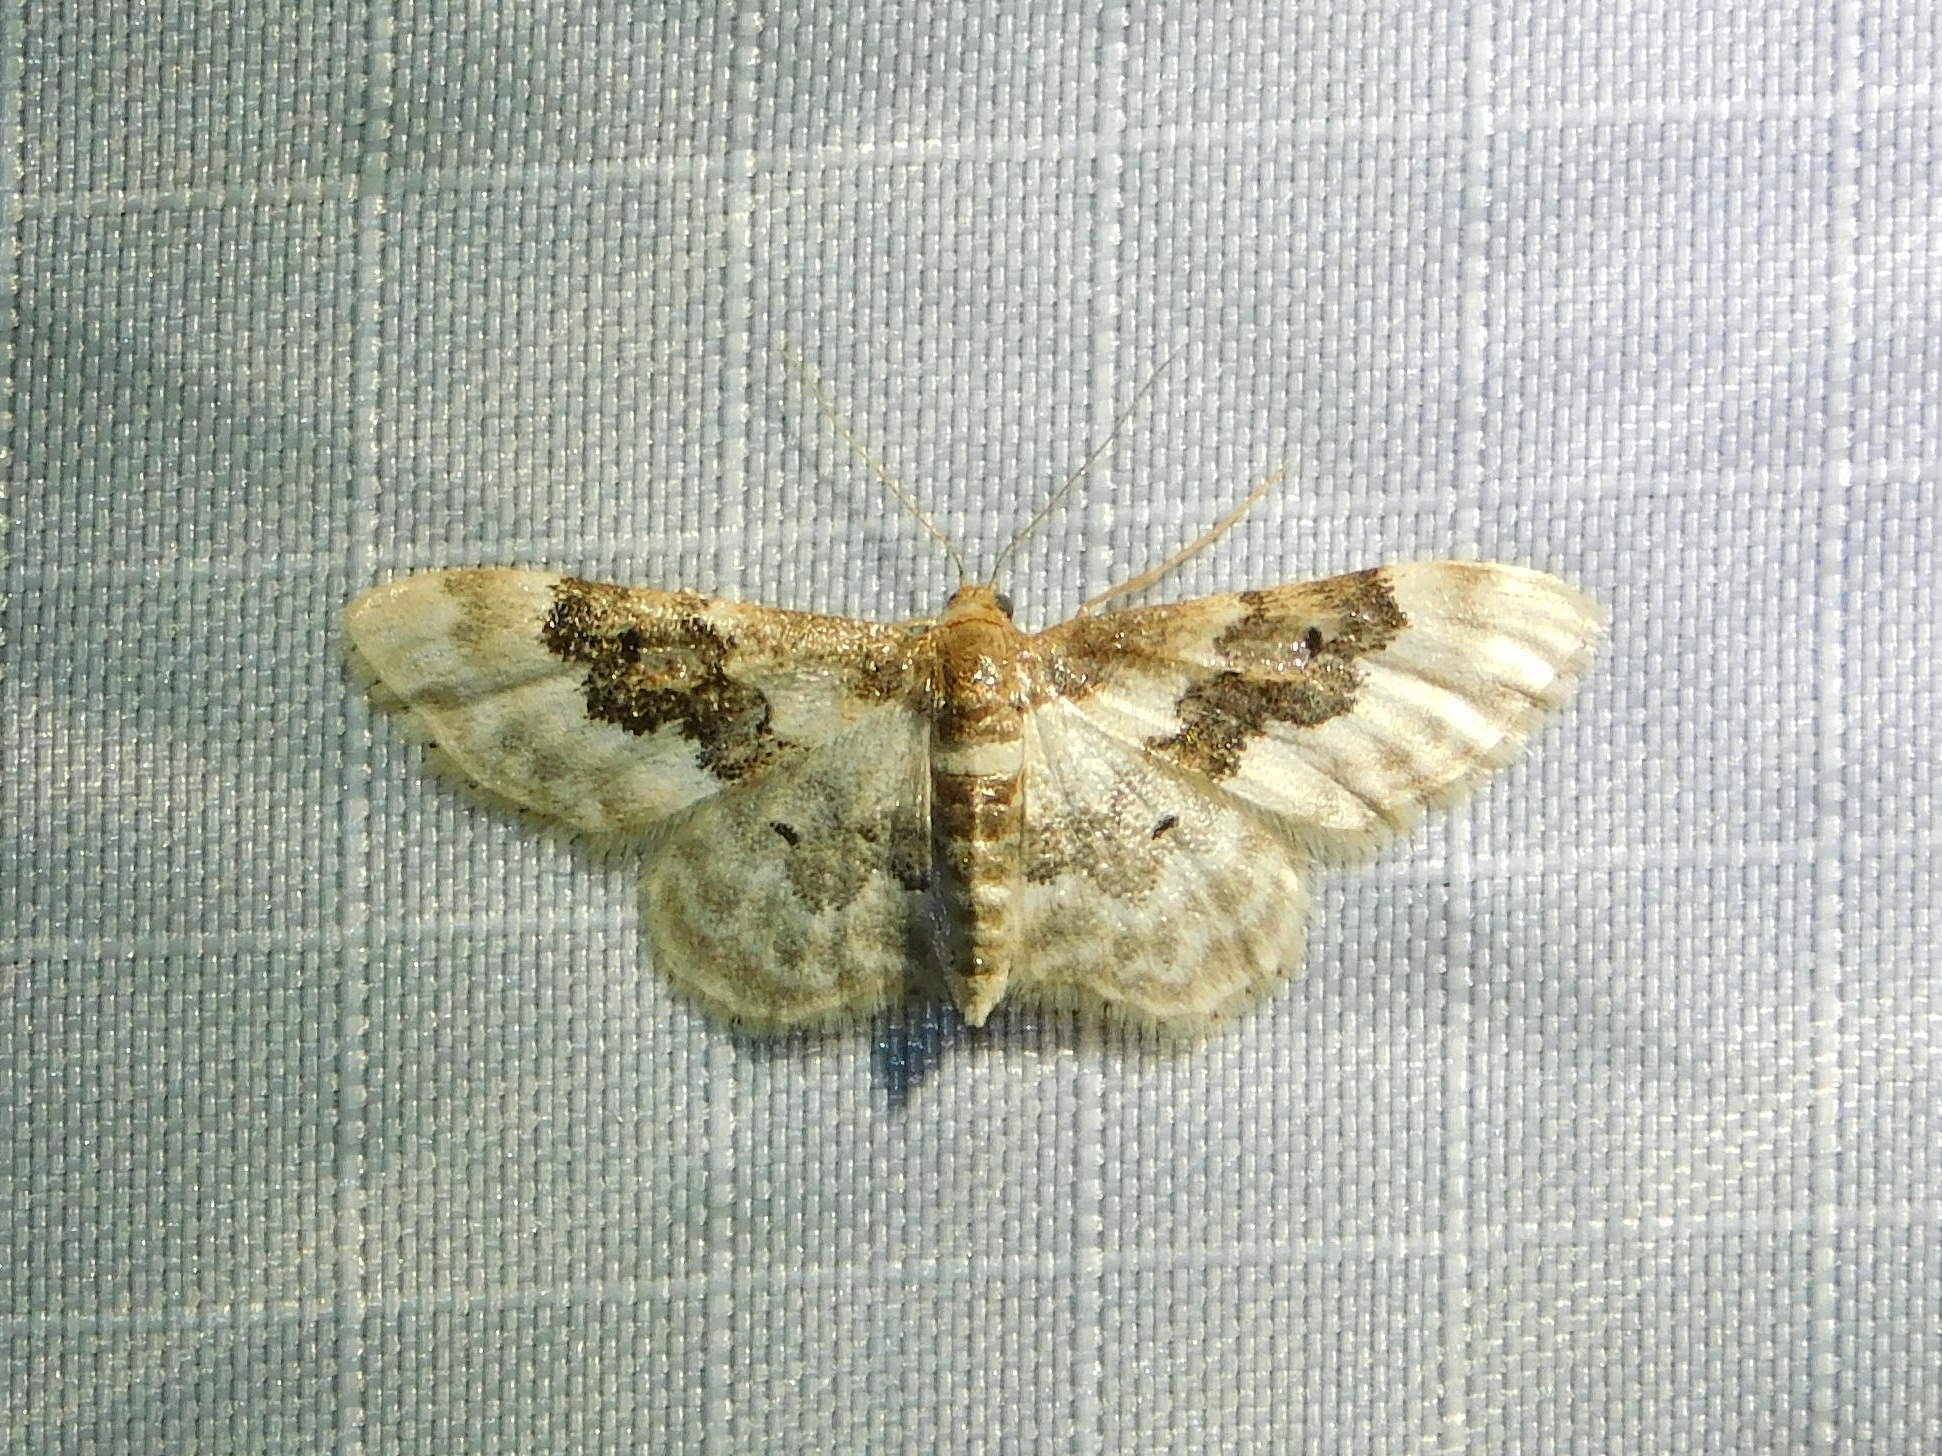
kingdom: Animalia
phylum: Arthropoda
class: Insecta
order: Lepidoptera
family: Geometridae
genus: Idaea
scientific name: Idaea rusticata
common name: Least carpet
